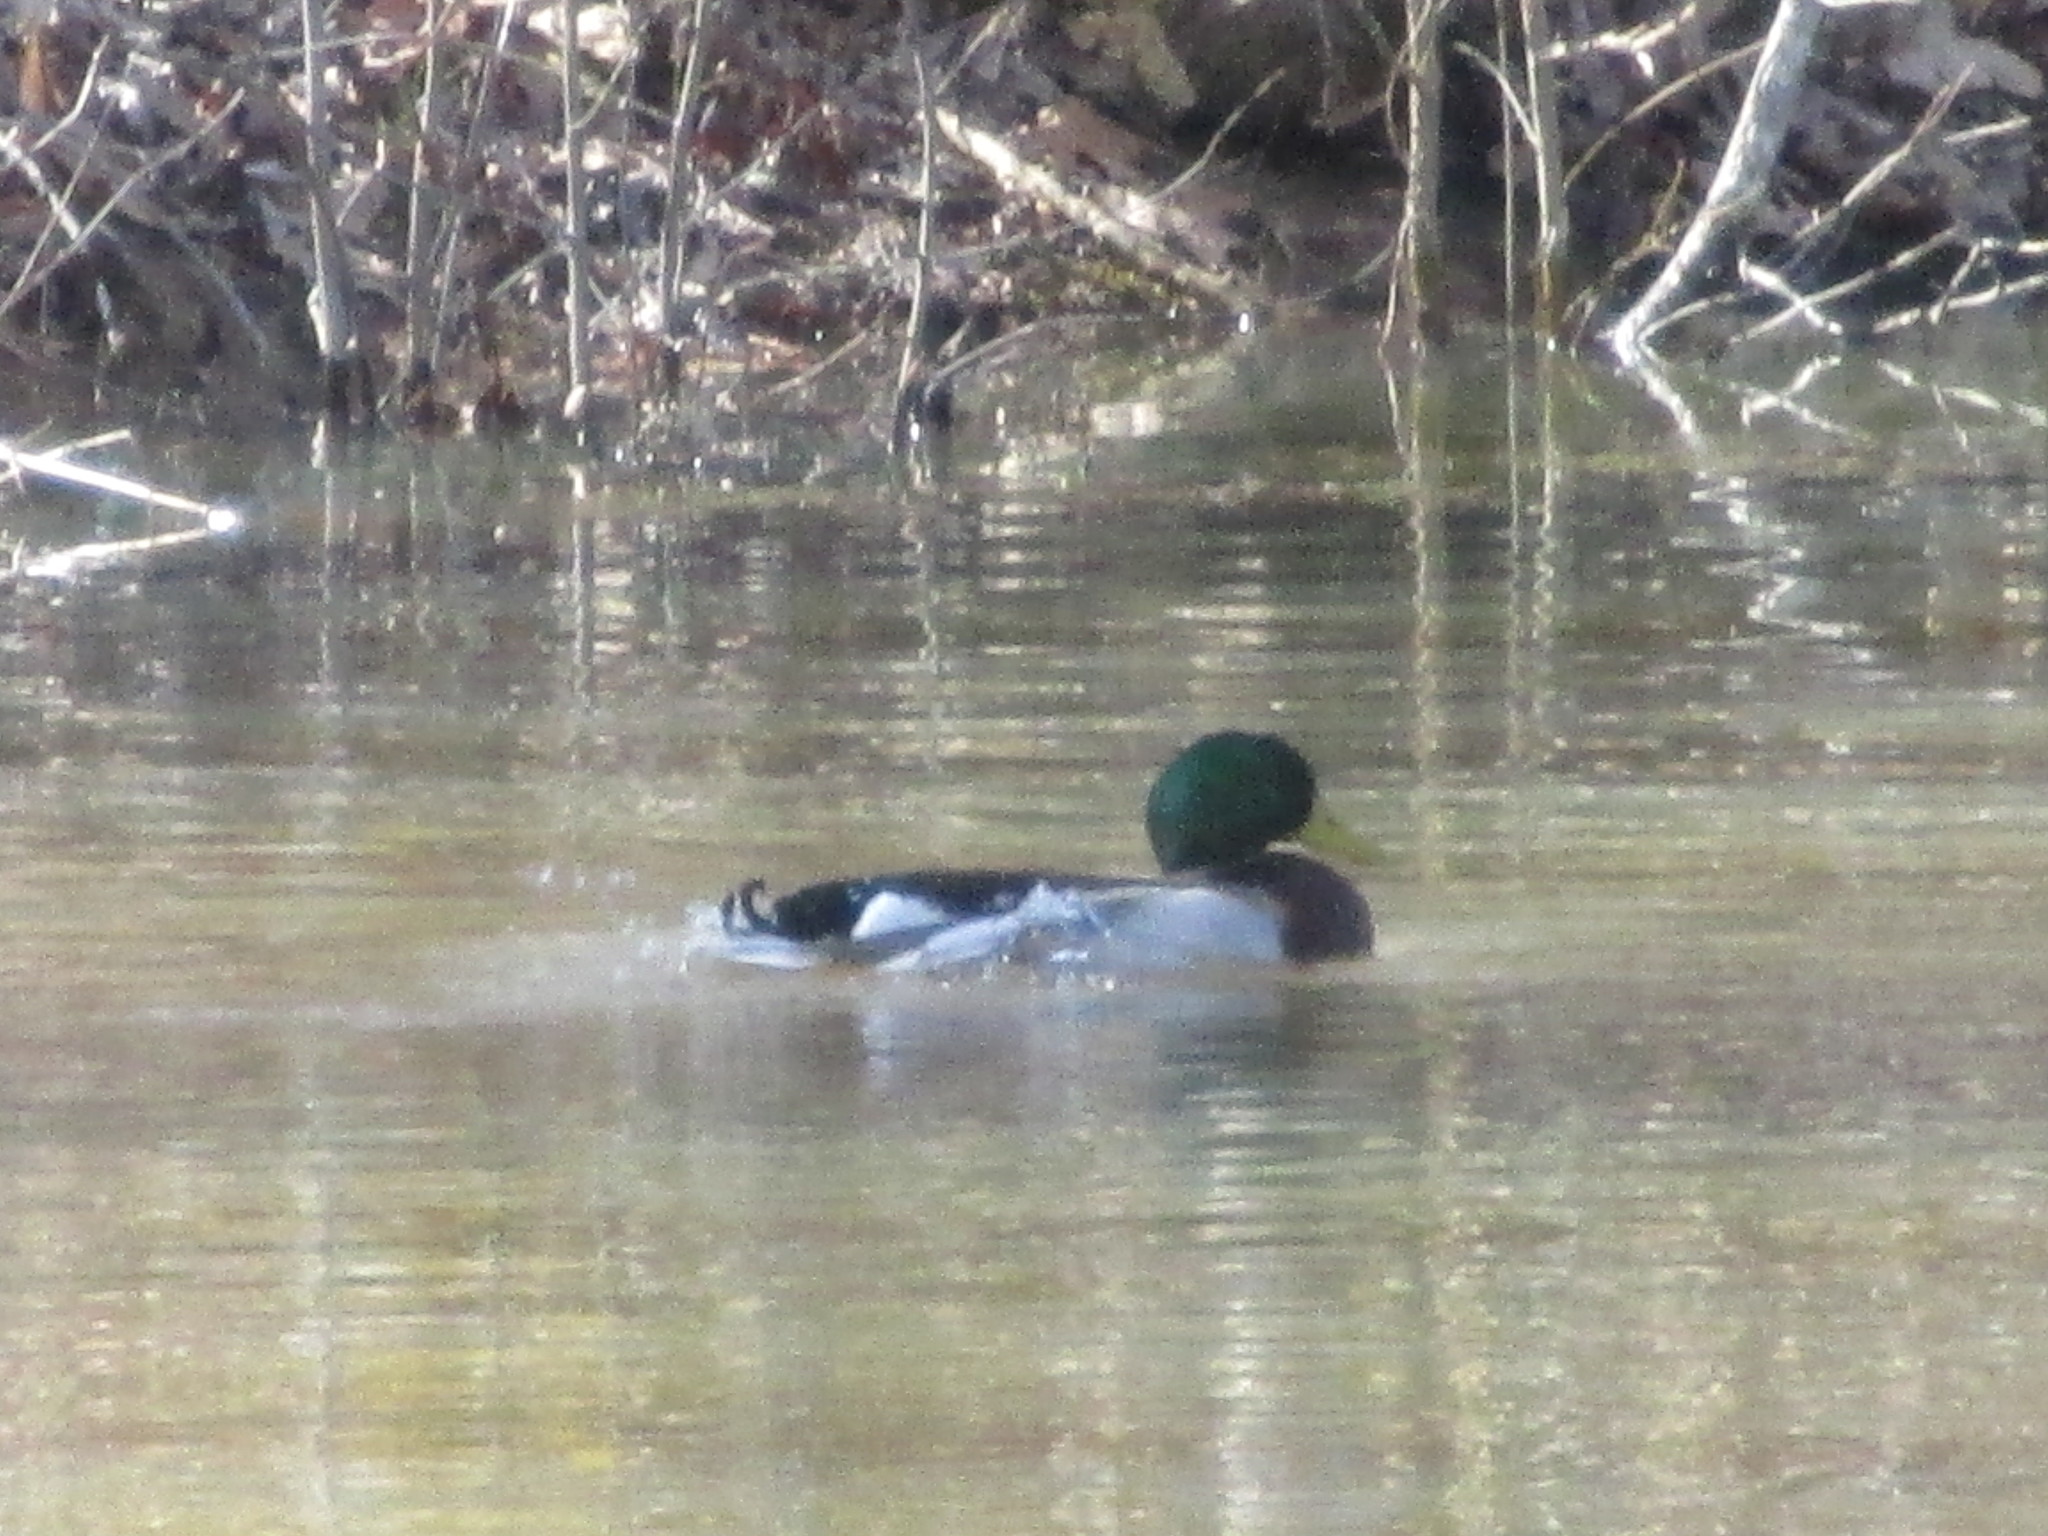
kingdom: Animalia
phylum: Chordata
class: Aves
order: Anseriformes
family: Anatidae
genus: Anas
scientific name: Anas platyrhynchos
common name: Mallard
